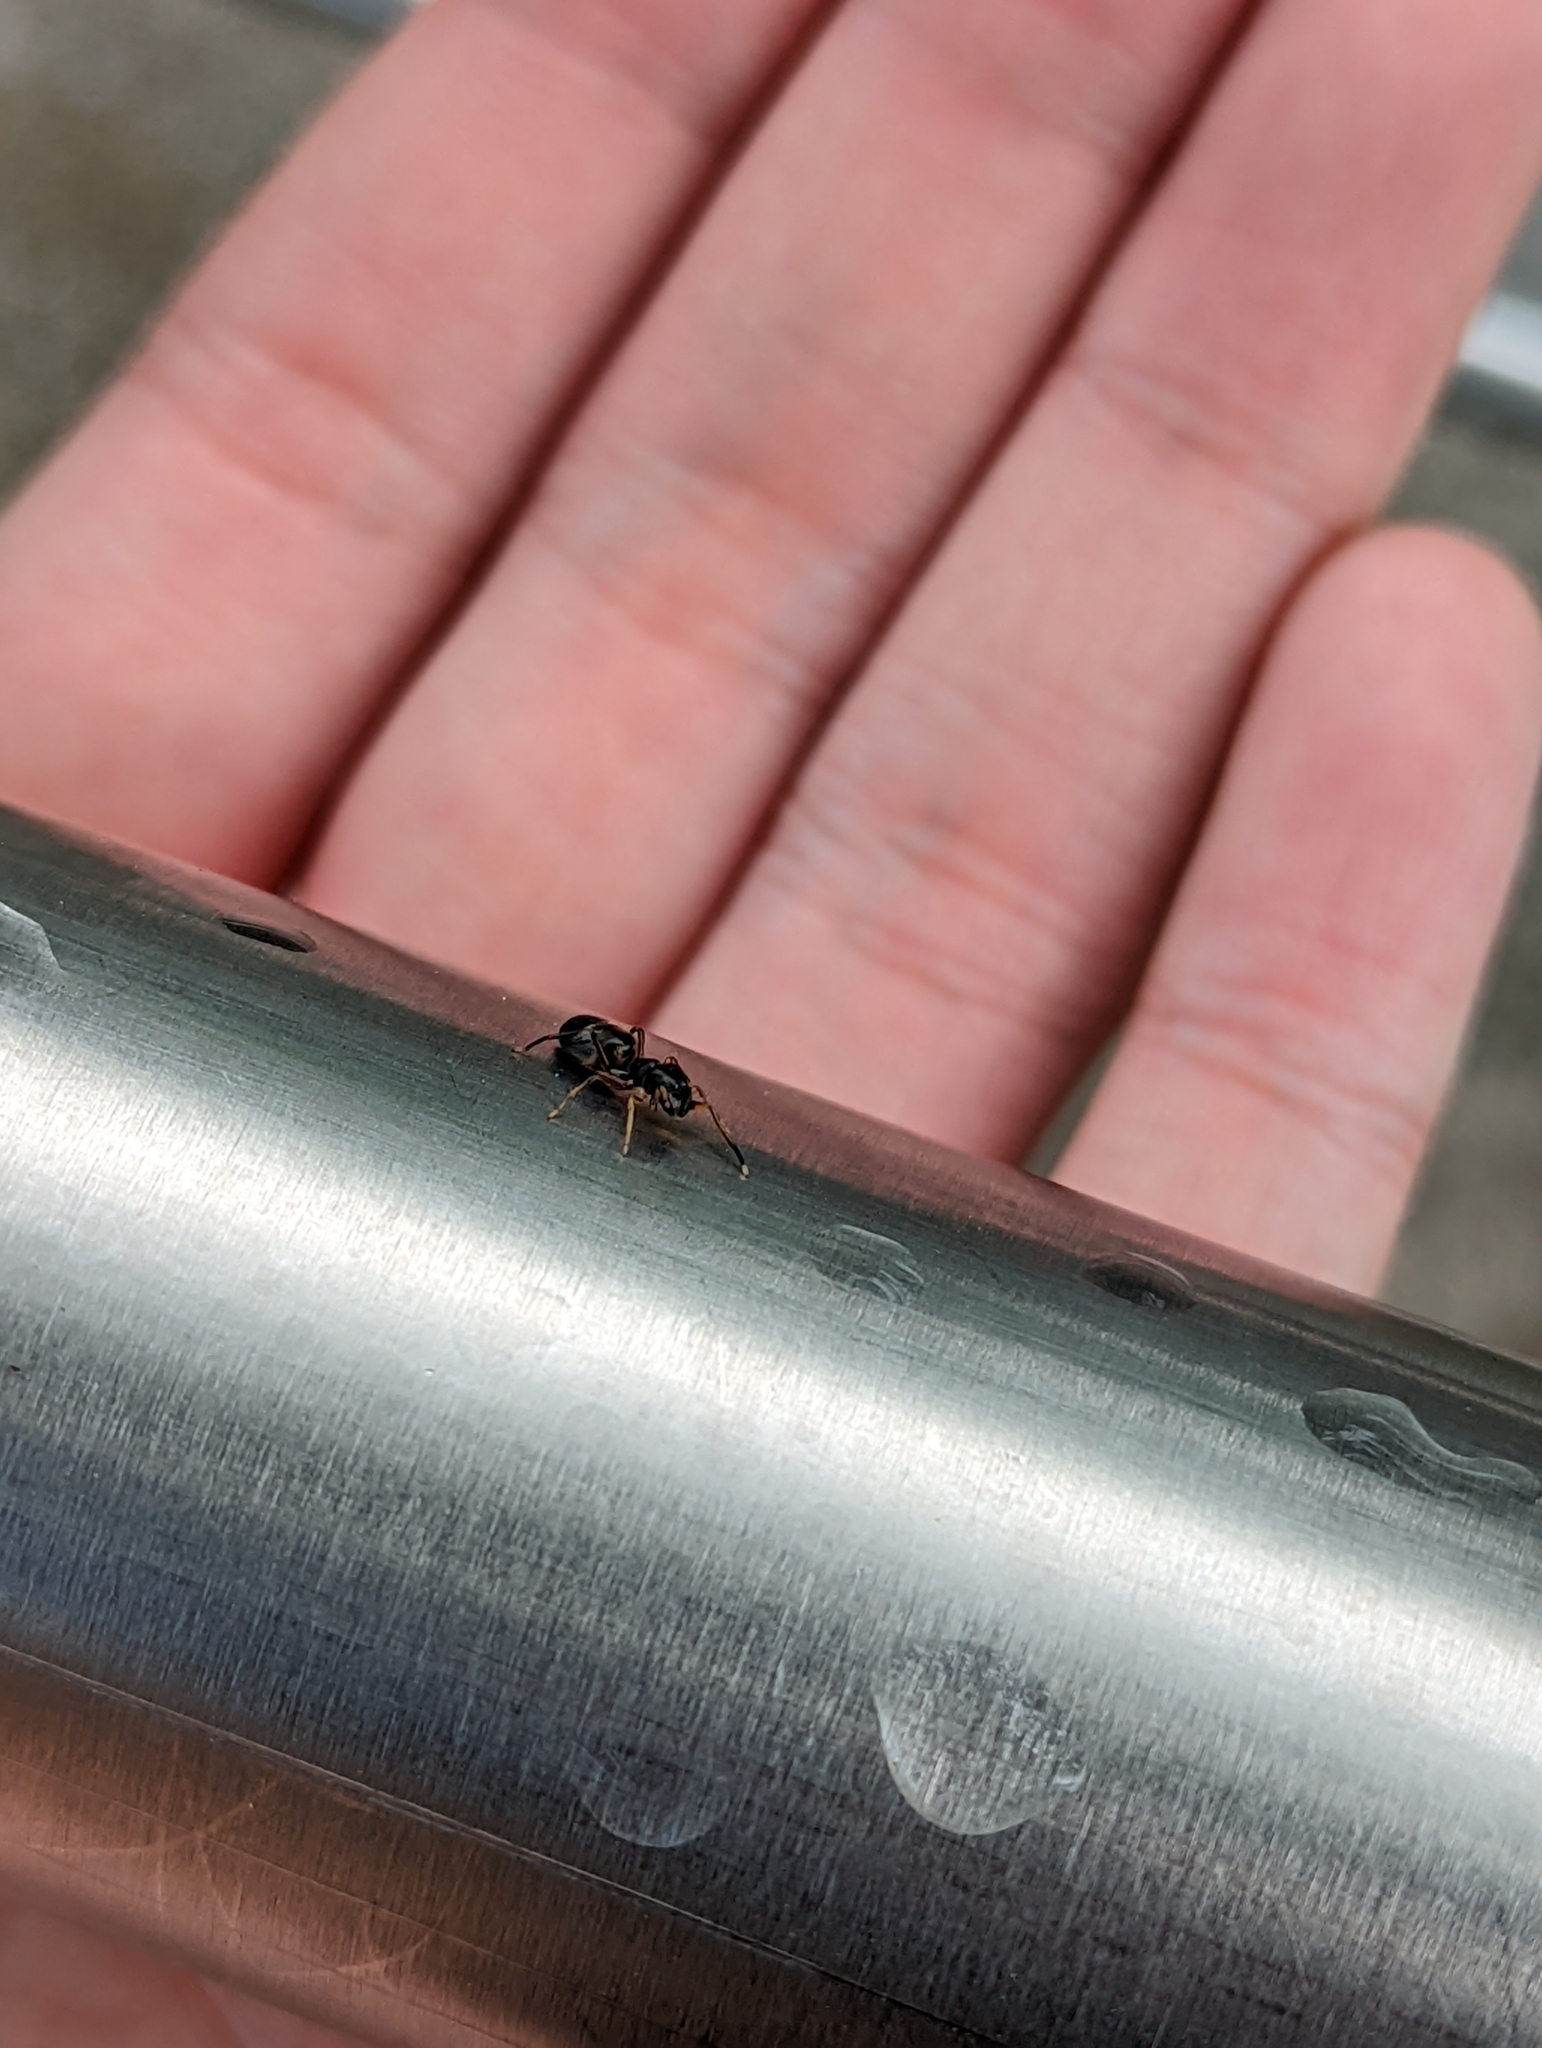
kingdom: Animalia
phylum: Arthropoda
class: Arachnida
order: Araneae
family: Salticidae
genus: Myrmarachne
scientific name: Myrmarachne formicaria
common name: Ant mimic jumping spider
